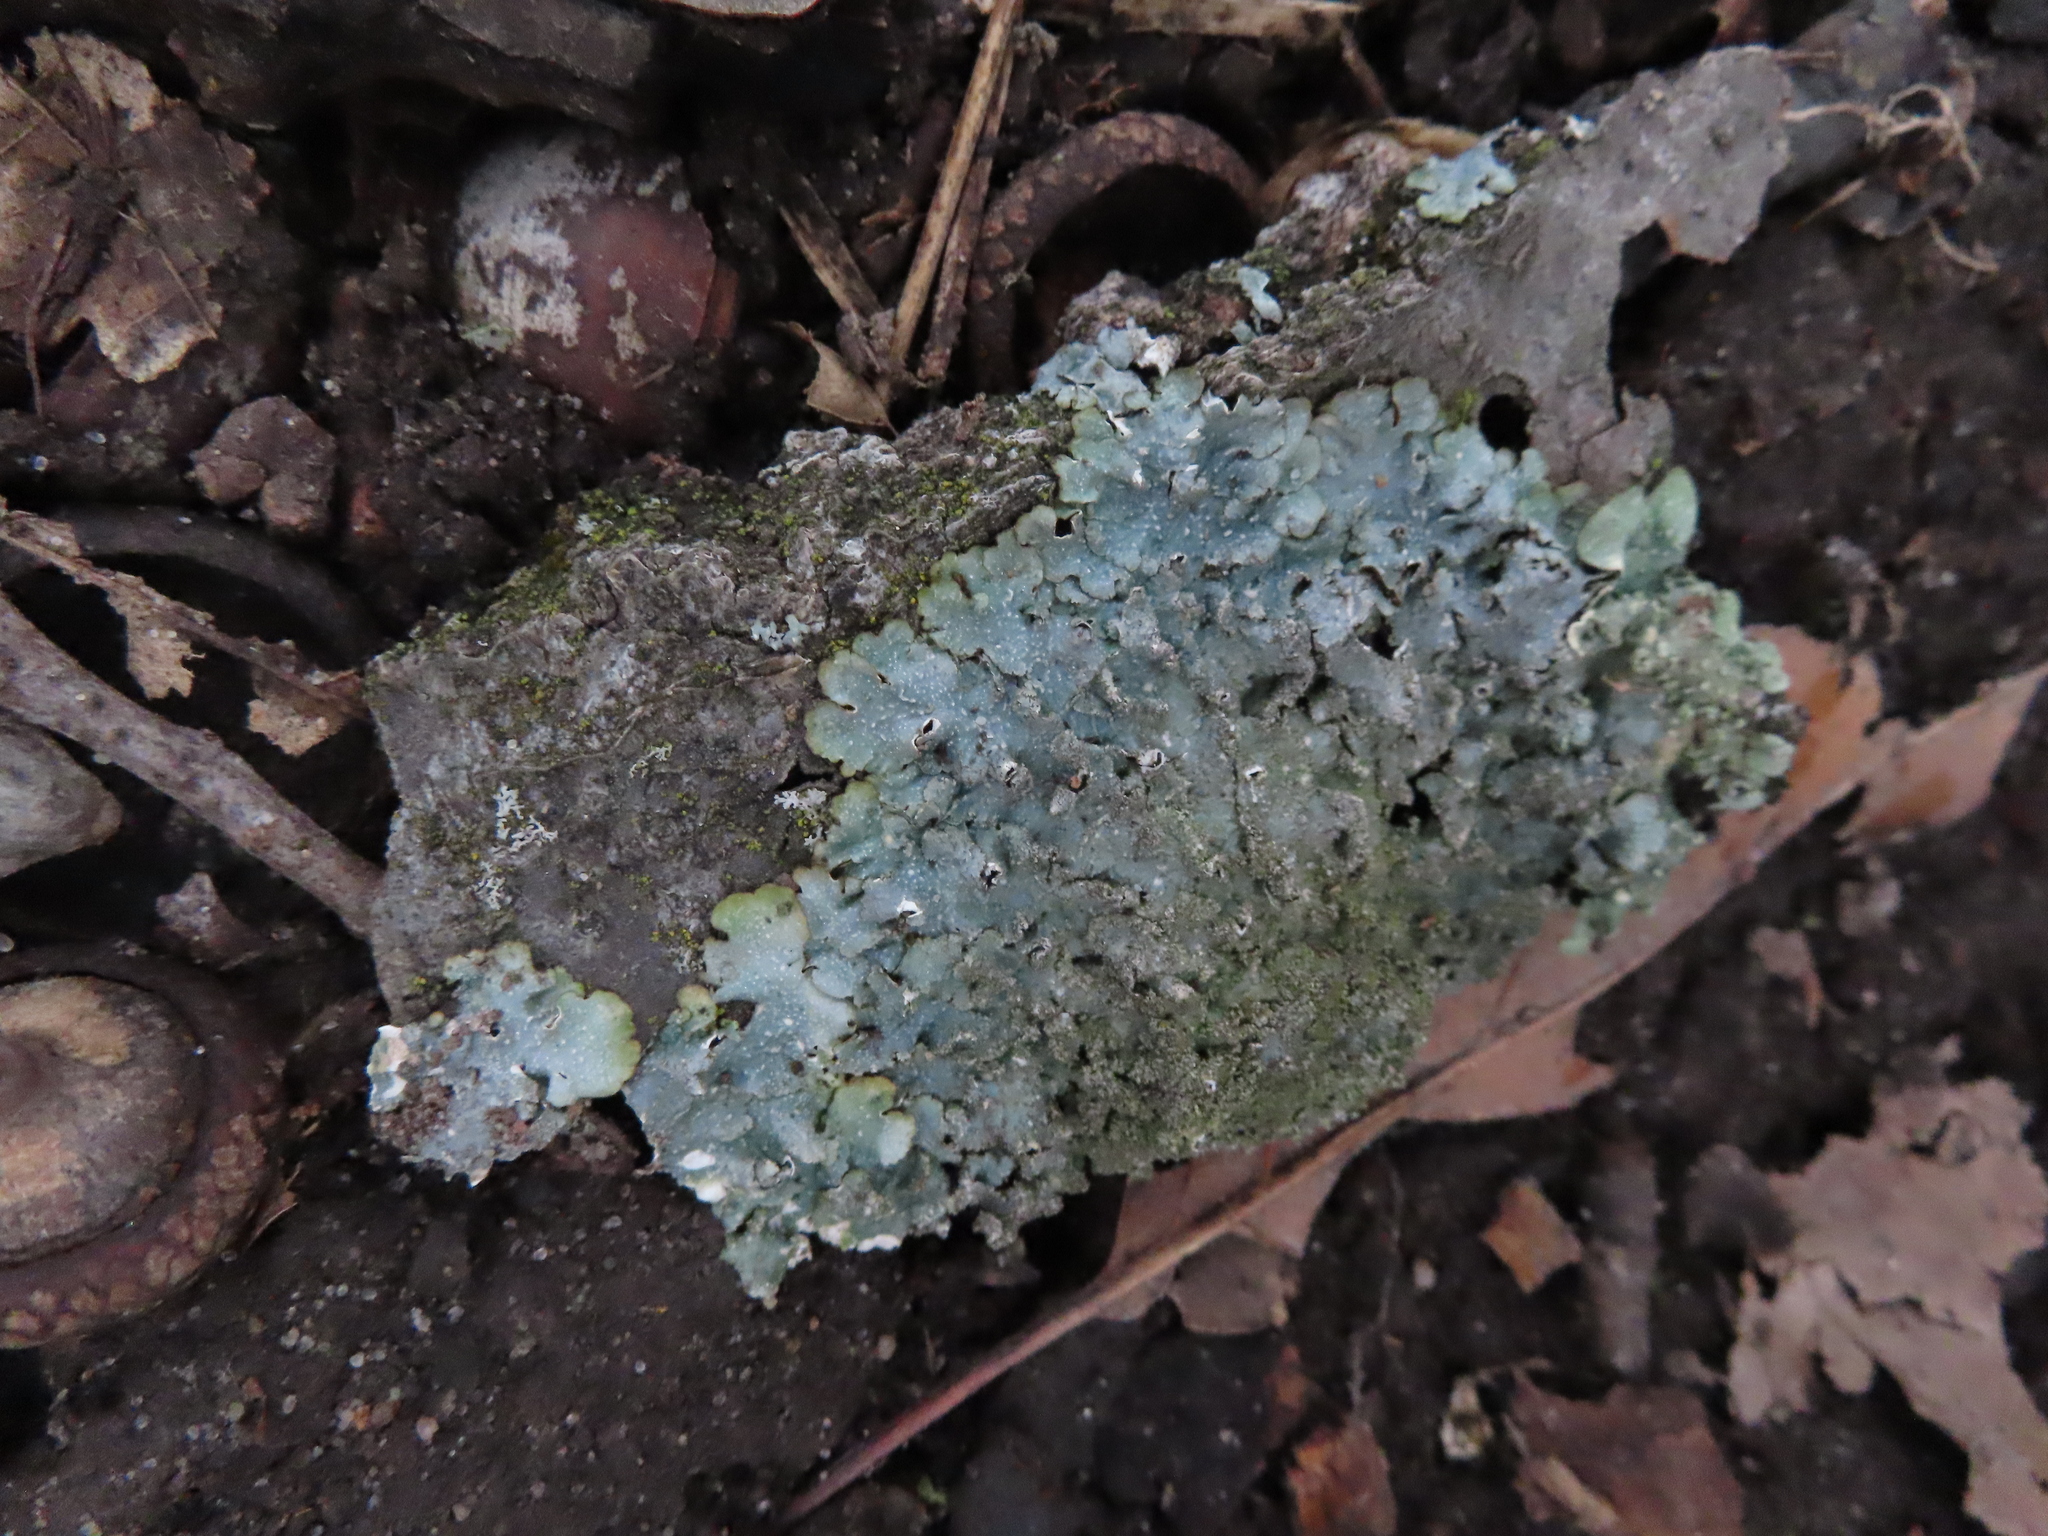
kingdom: Fungi
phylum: Ascomycota
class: Lecanoromycetes
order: Lecanorales
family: Parmeliaceae
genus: Punctelia
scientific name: Punctelia rudecta
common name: Rough speckled shield lichen
